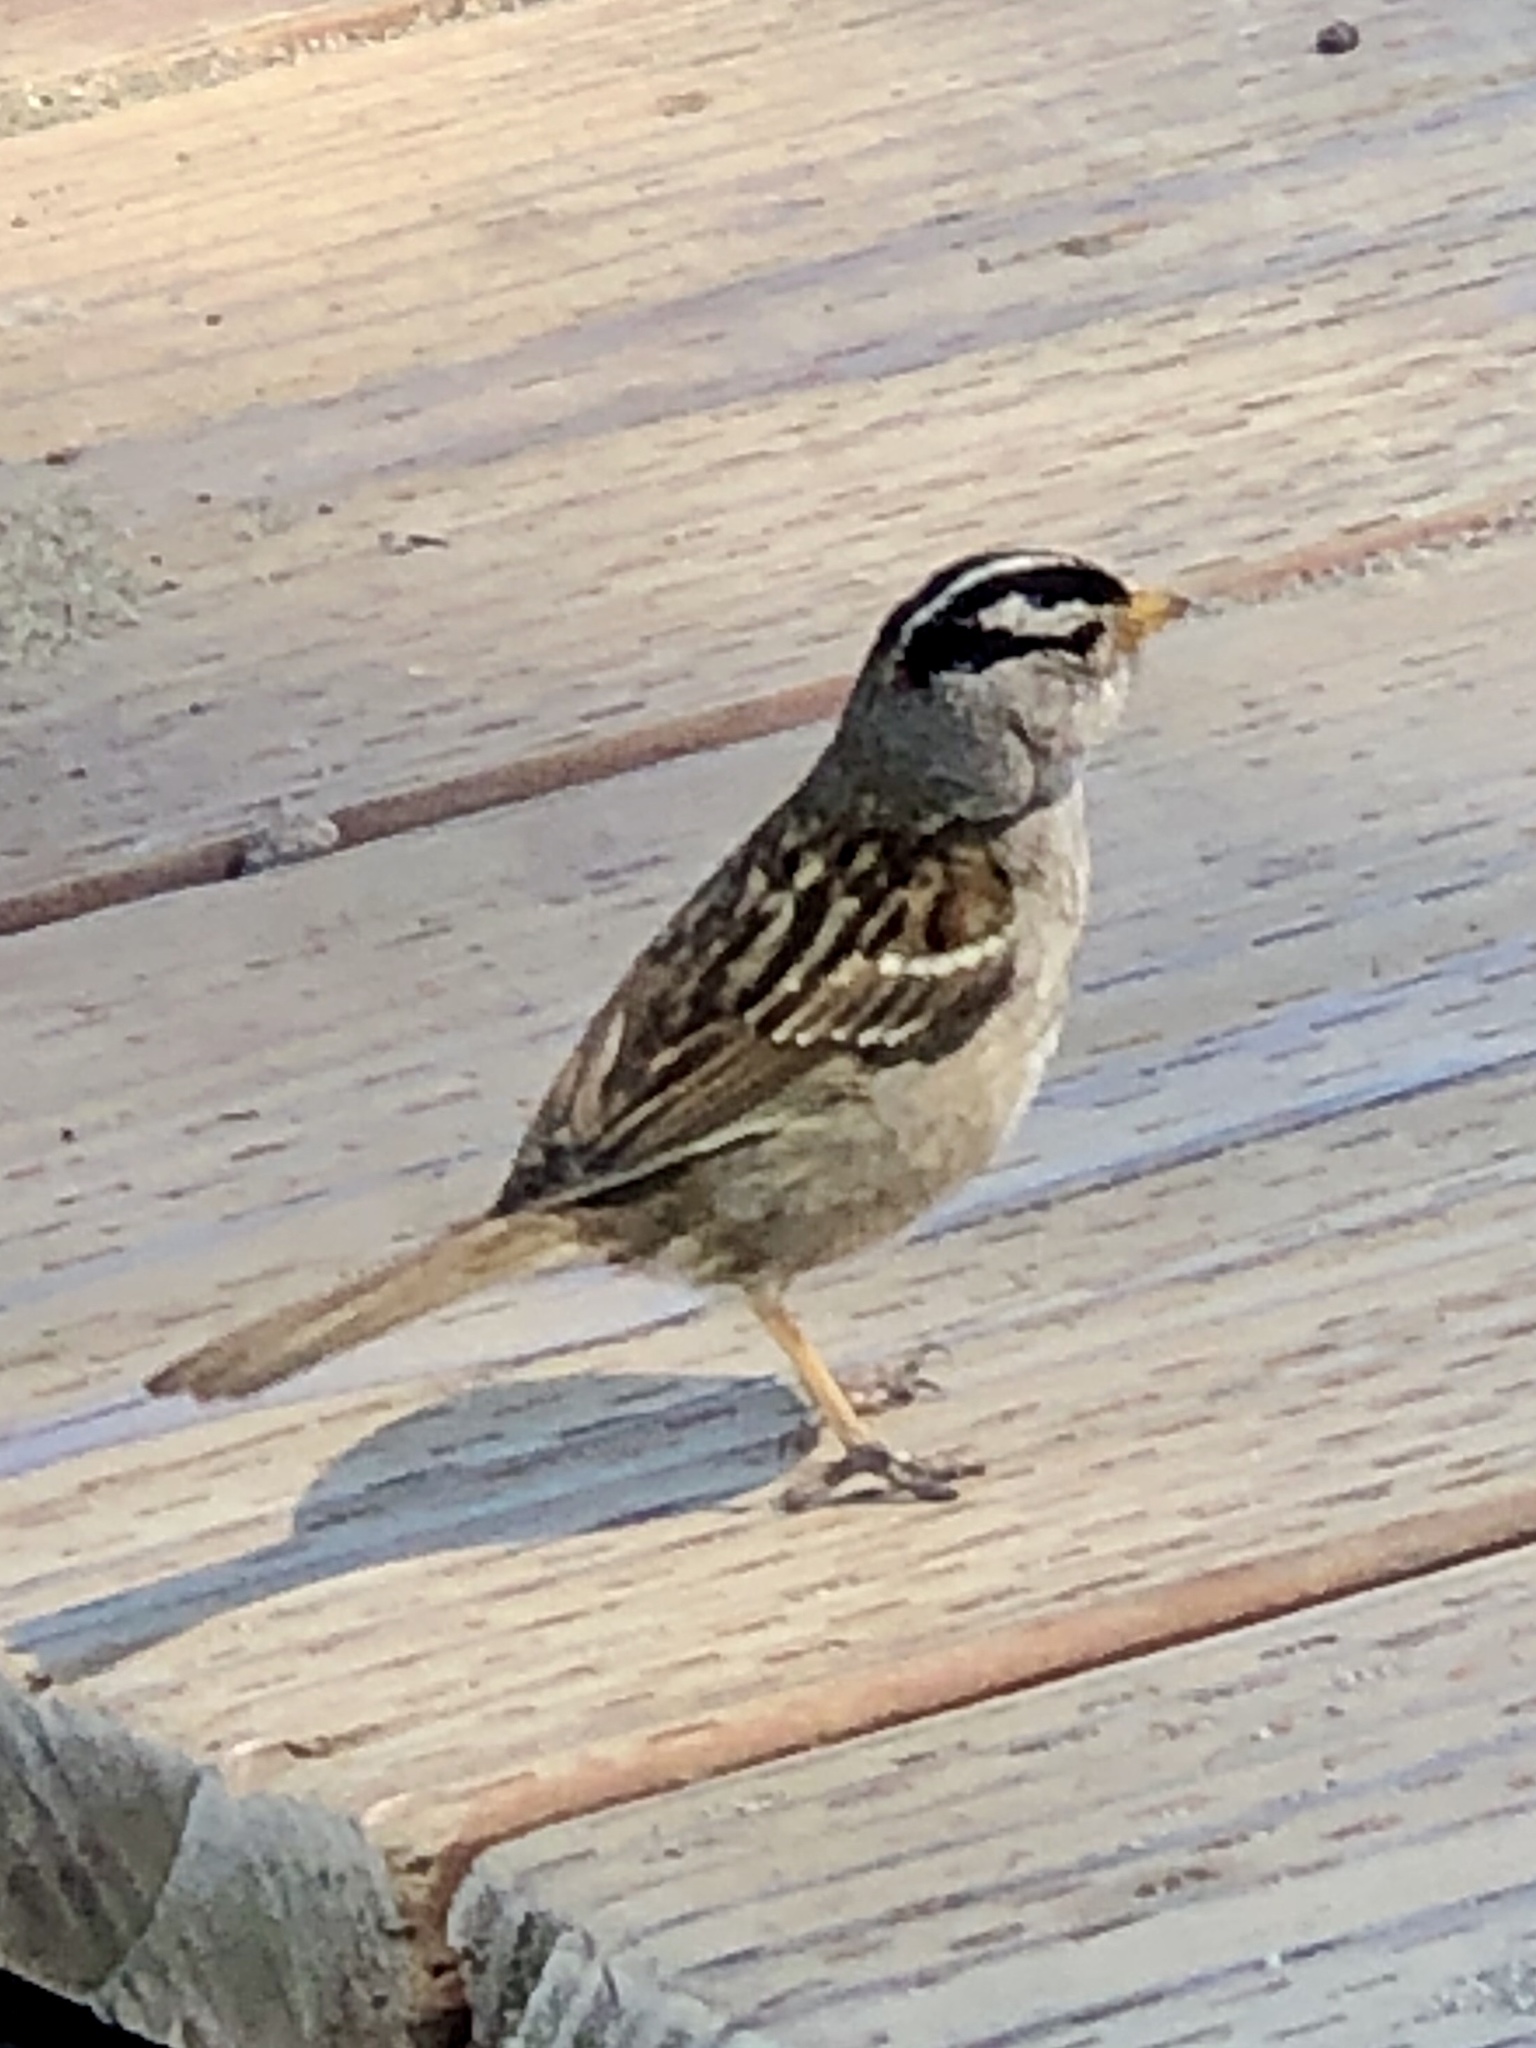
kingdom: Animalia
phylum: Chordata
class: Aves
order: Passeriformes
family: Passerellidae
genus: Zonotrichia
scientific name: Zonotrichia leucophrys
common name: White-crowned sparrow
